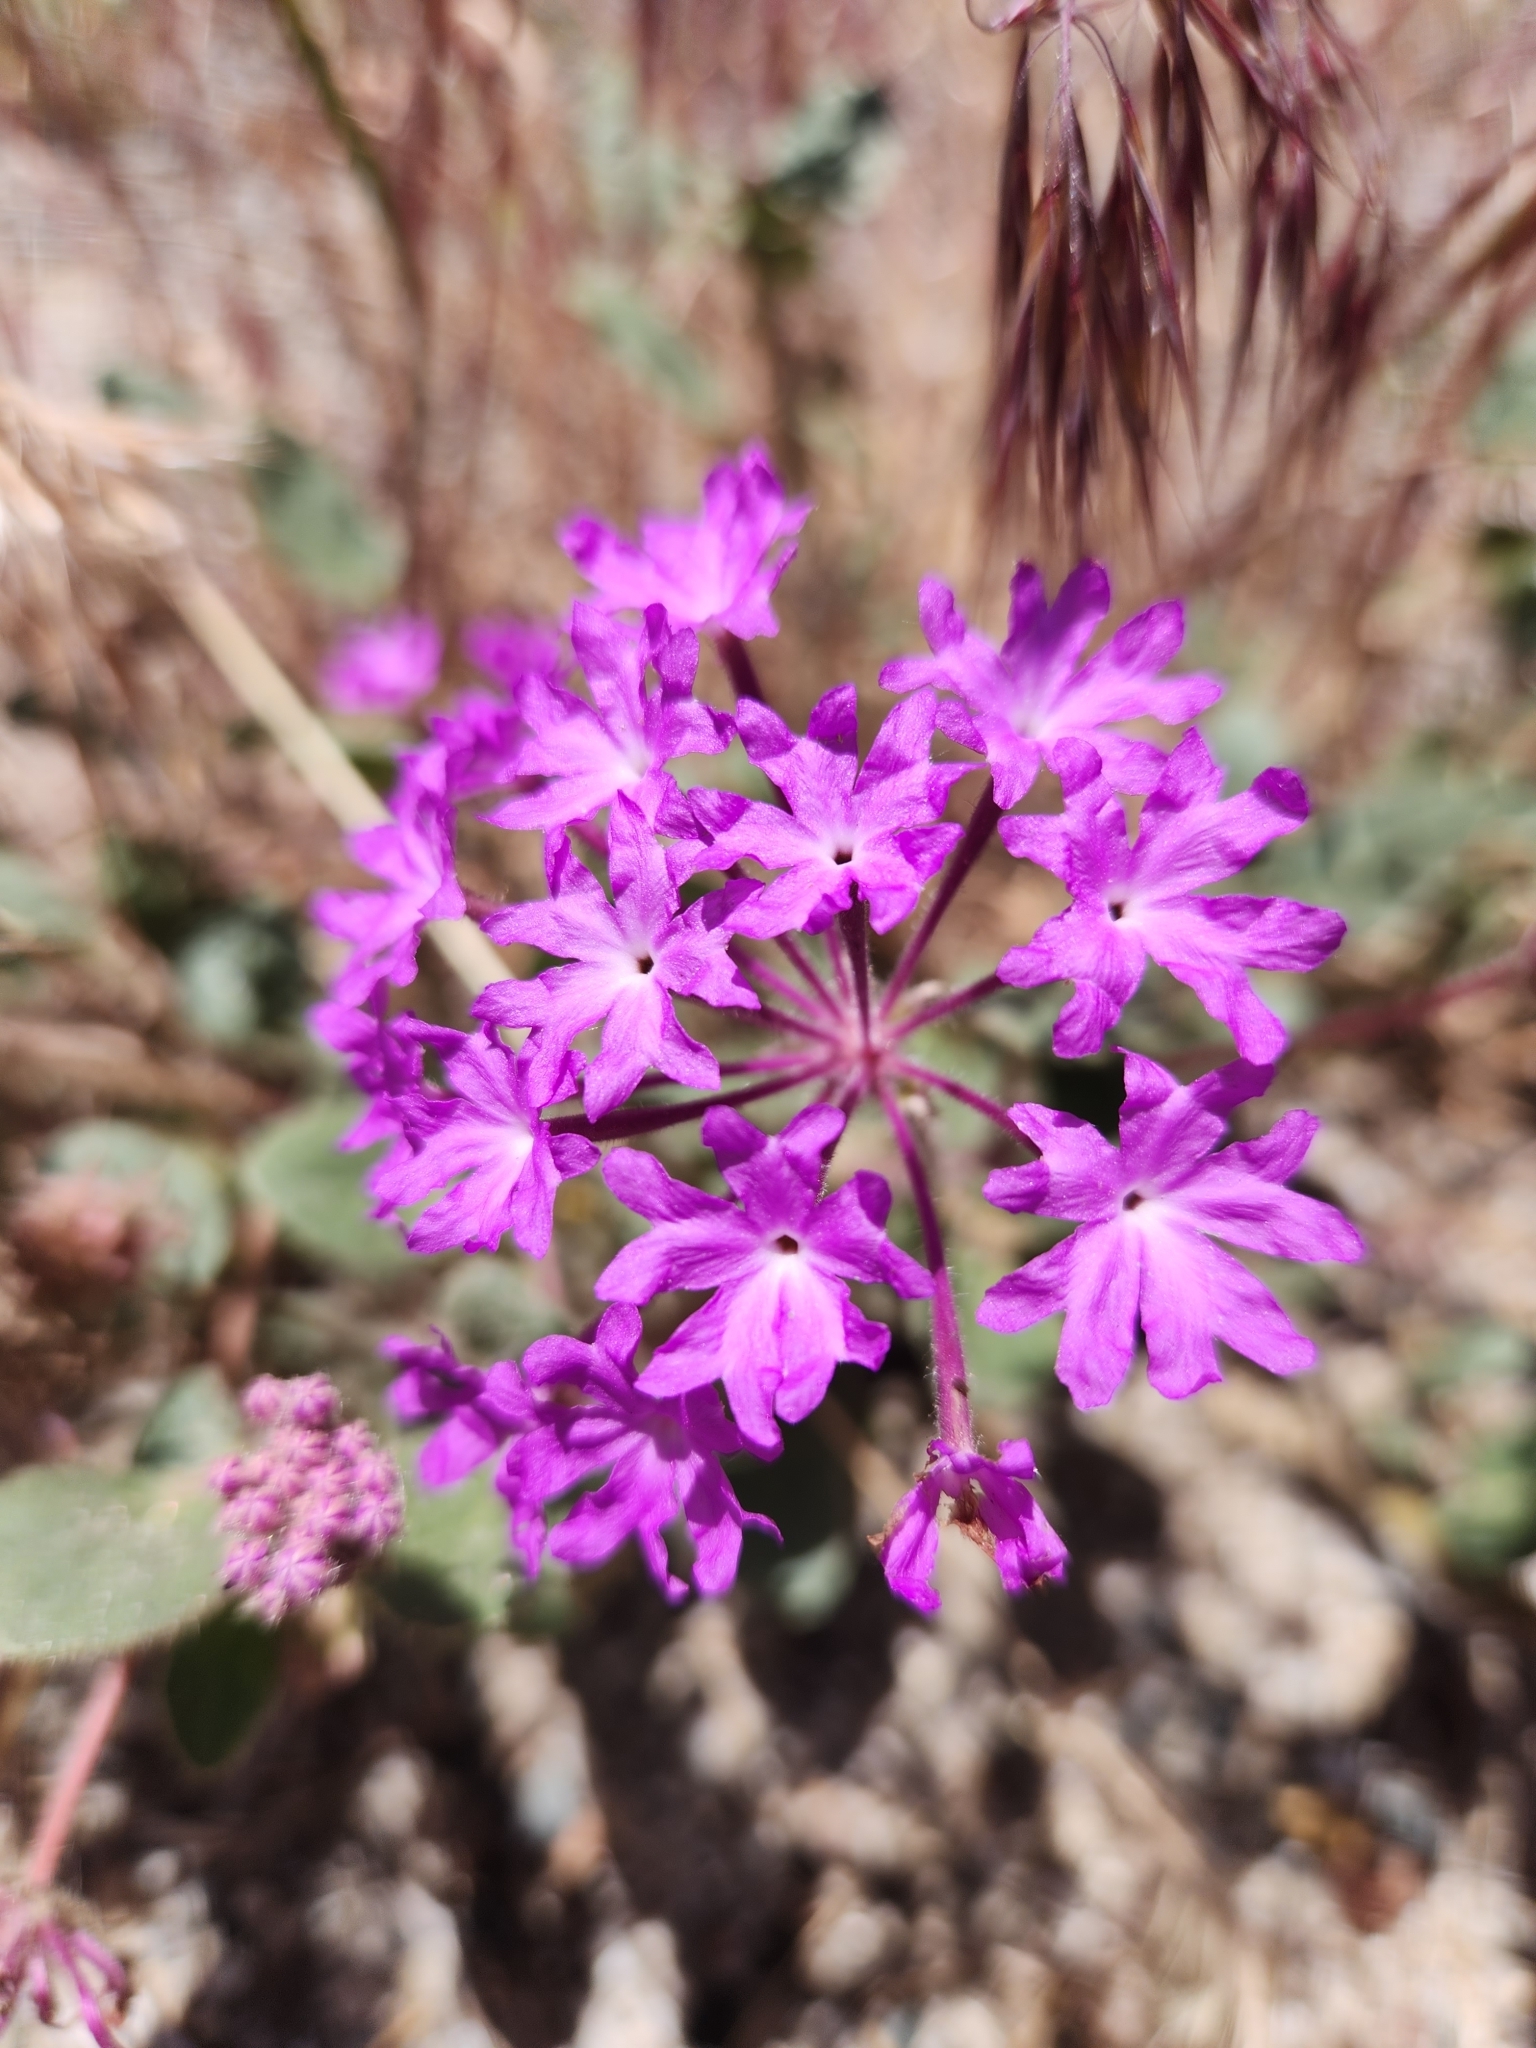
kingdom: Plantae
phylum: Tracheophyta
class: Magnoliopsida
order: Caryophyllales
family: Nyctaginaceae
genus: Abronia
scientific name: Abronia villosa
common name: Desert sand-verbena
